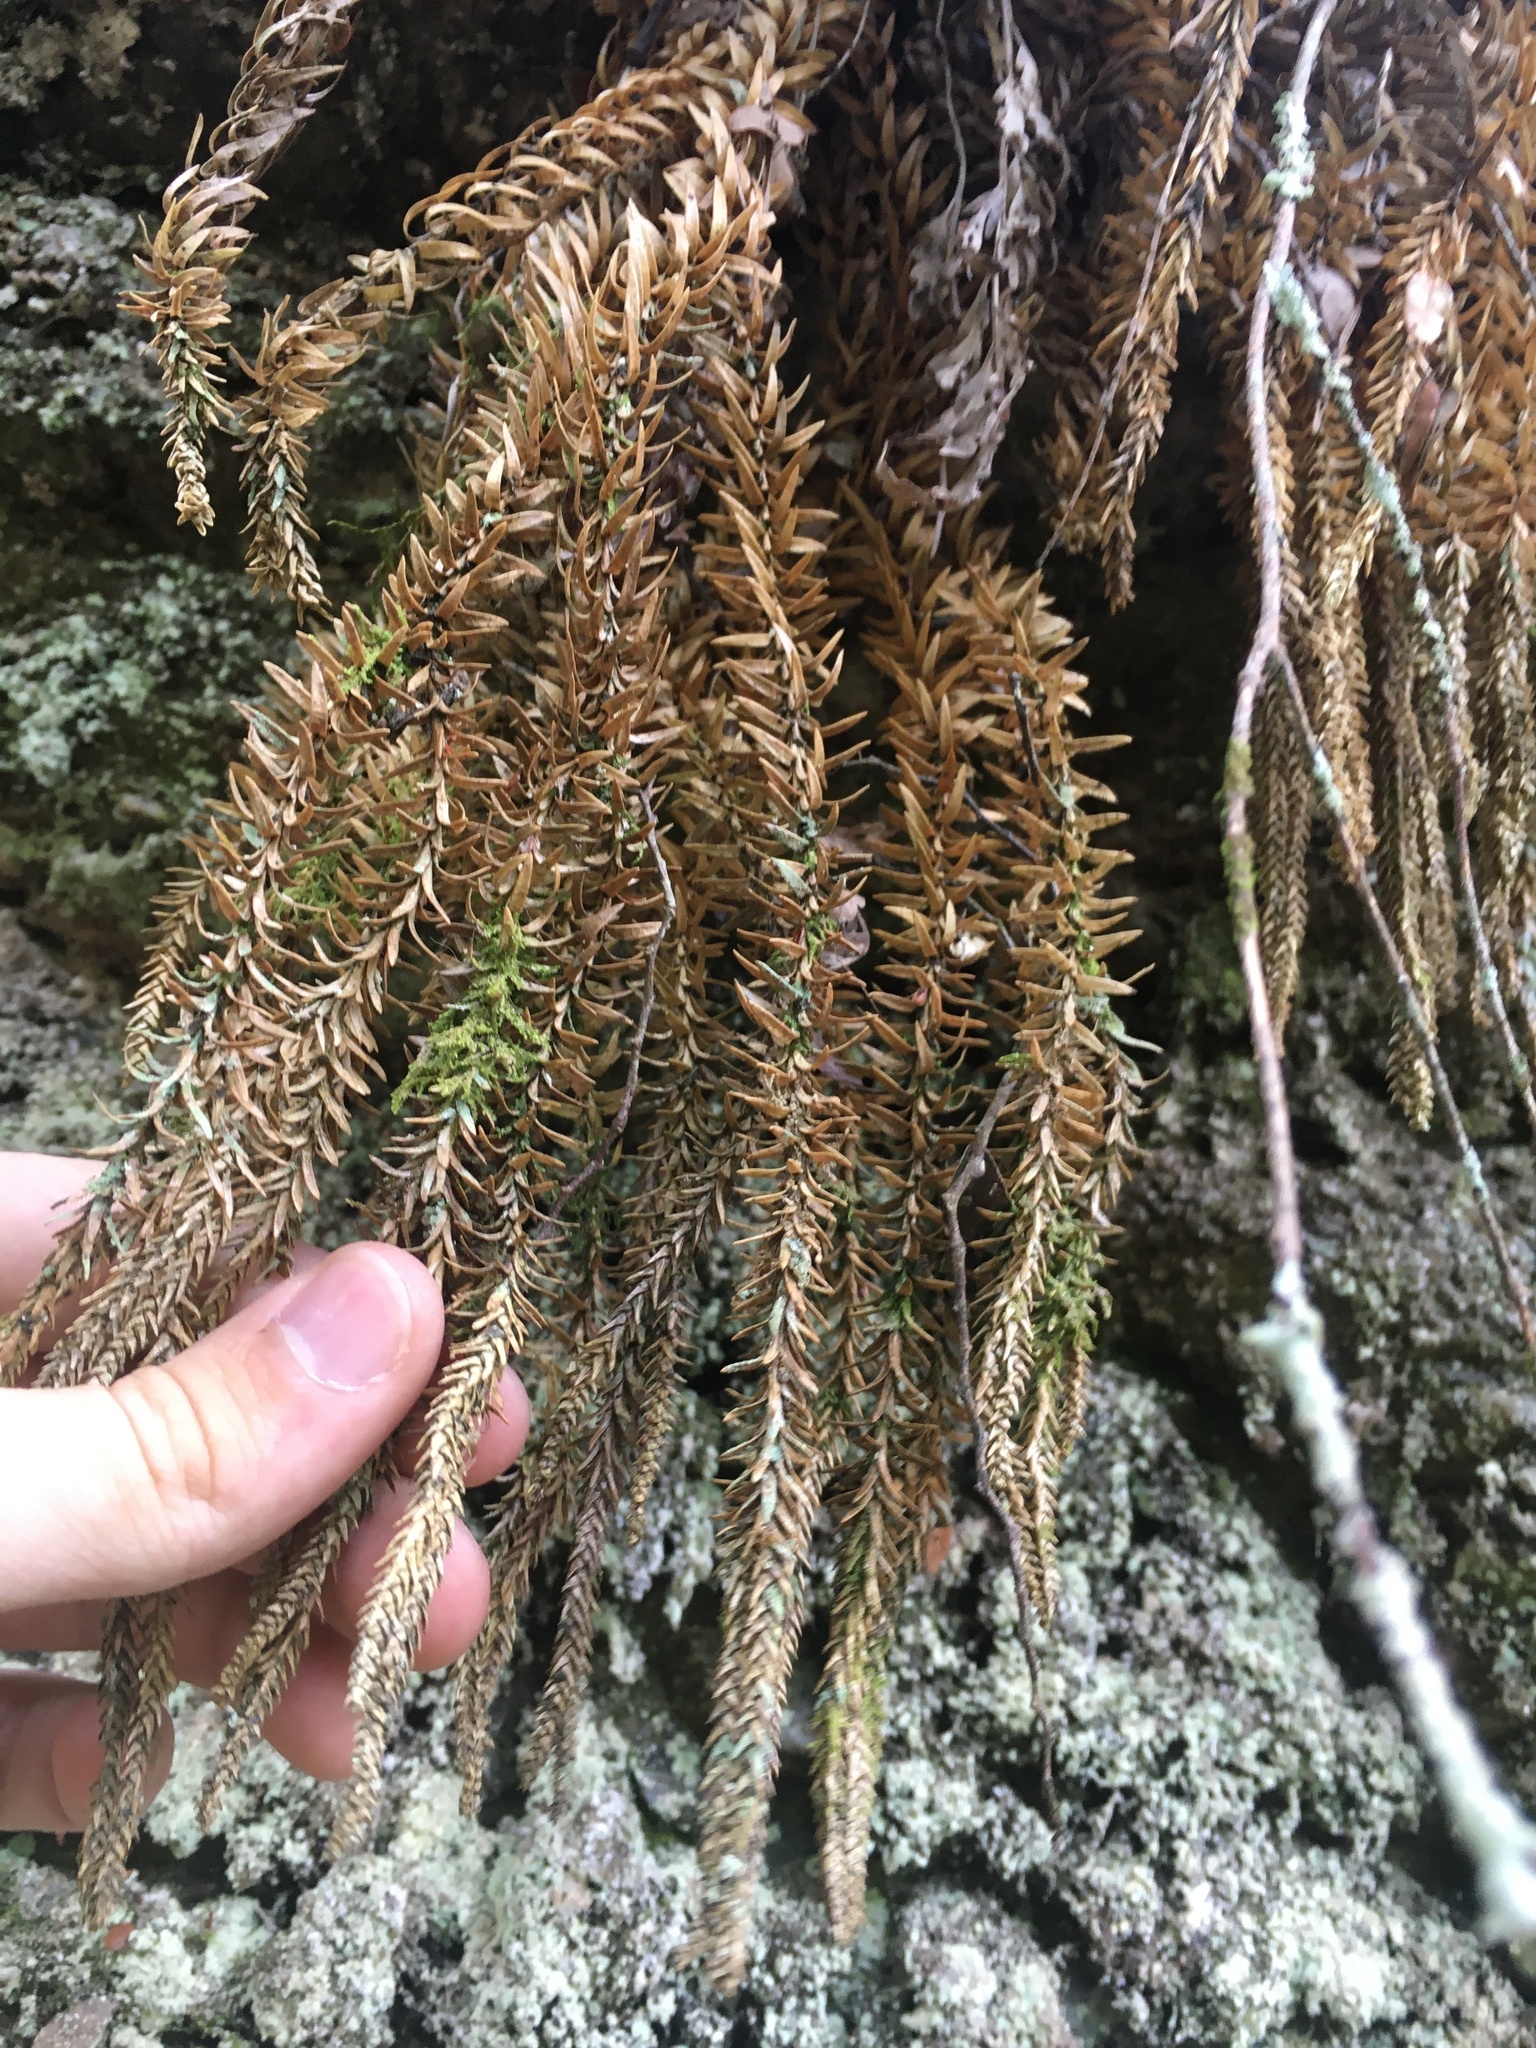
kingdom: Plantae
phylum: Tracheophyta
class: Lycopodiopsida
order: Lycopodiales
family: Lycopodiaceae
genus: Phlegmariurus
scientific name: Phlegmariurus varius
